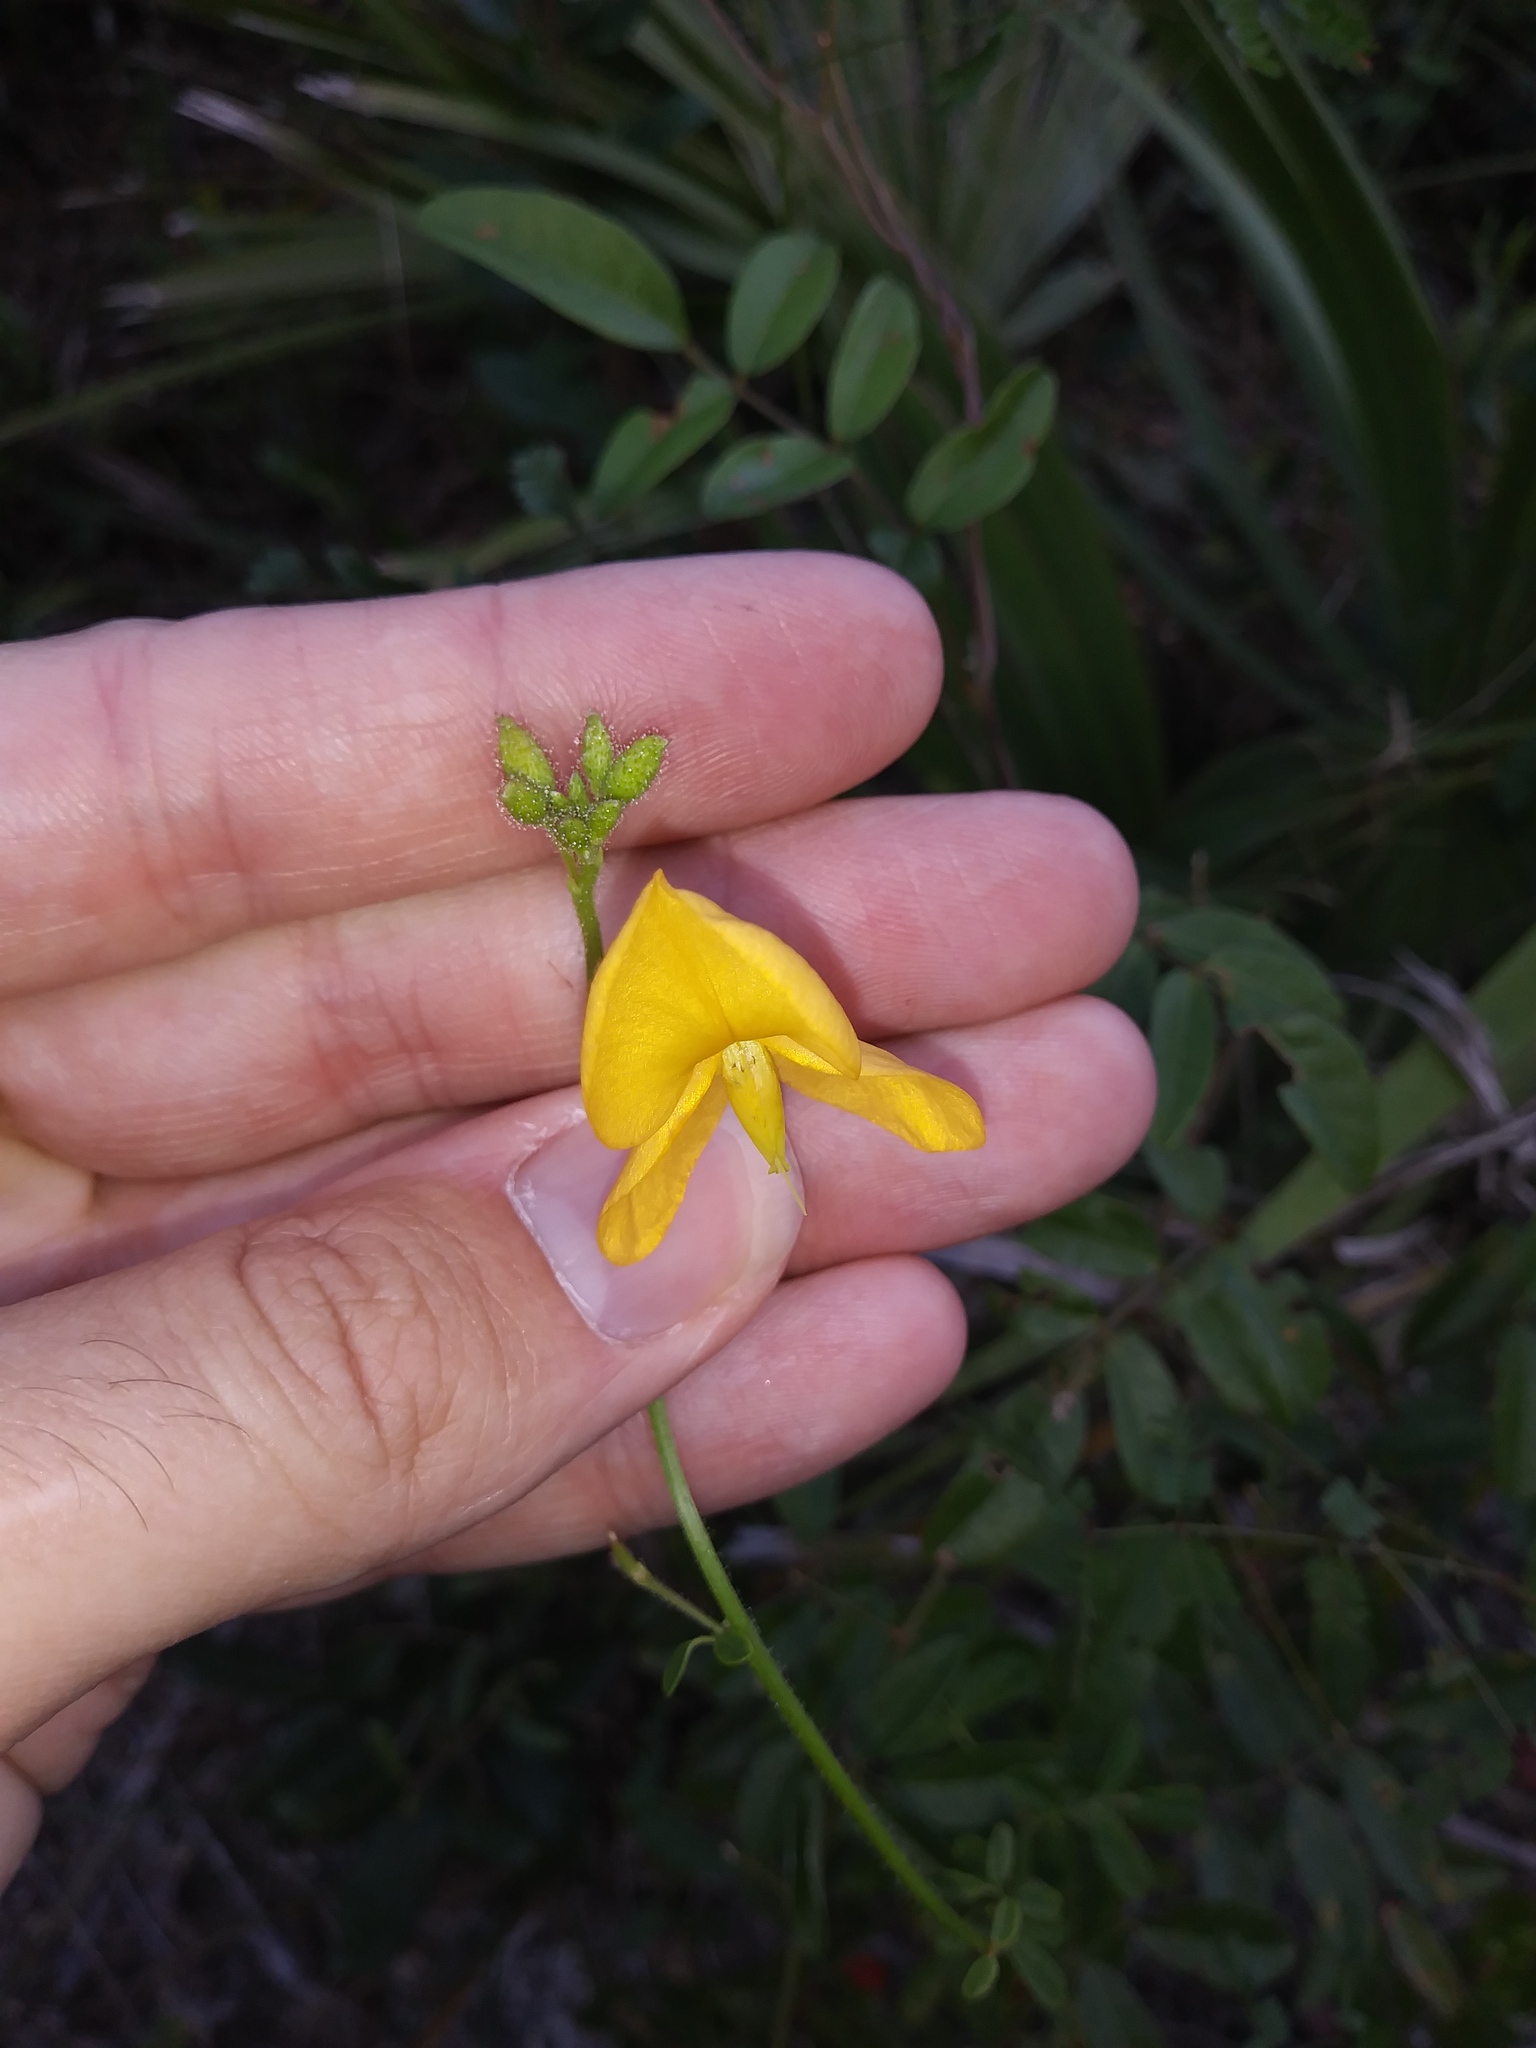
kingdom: Plantae
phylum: Tracheophyta
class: Magnoliopsida
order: Fabales
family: Fabaceae
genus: Chapmannia
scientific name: Chapmannia floridana
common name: Alicia
